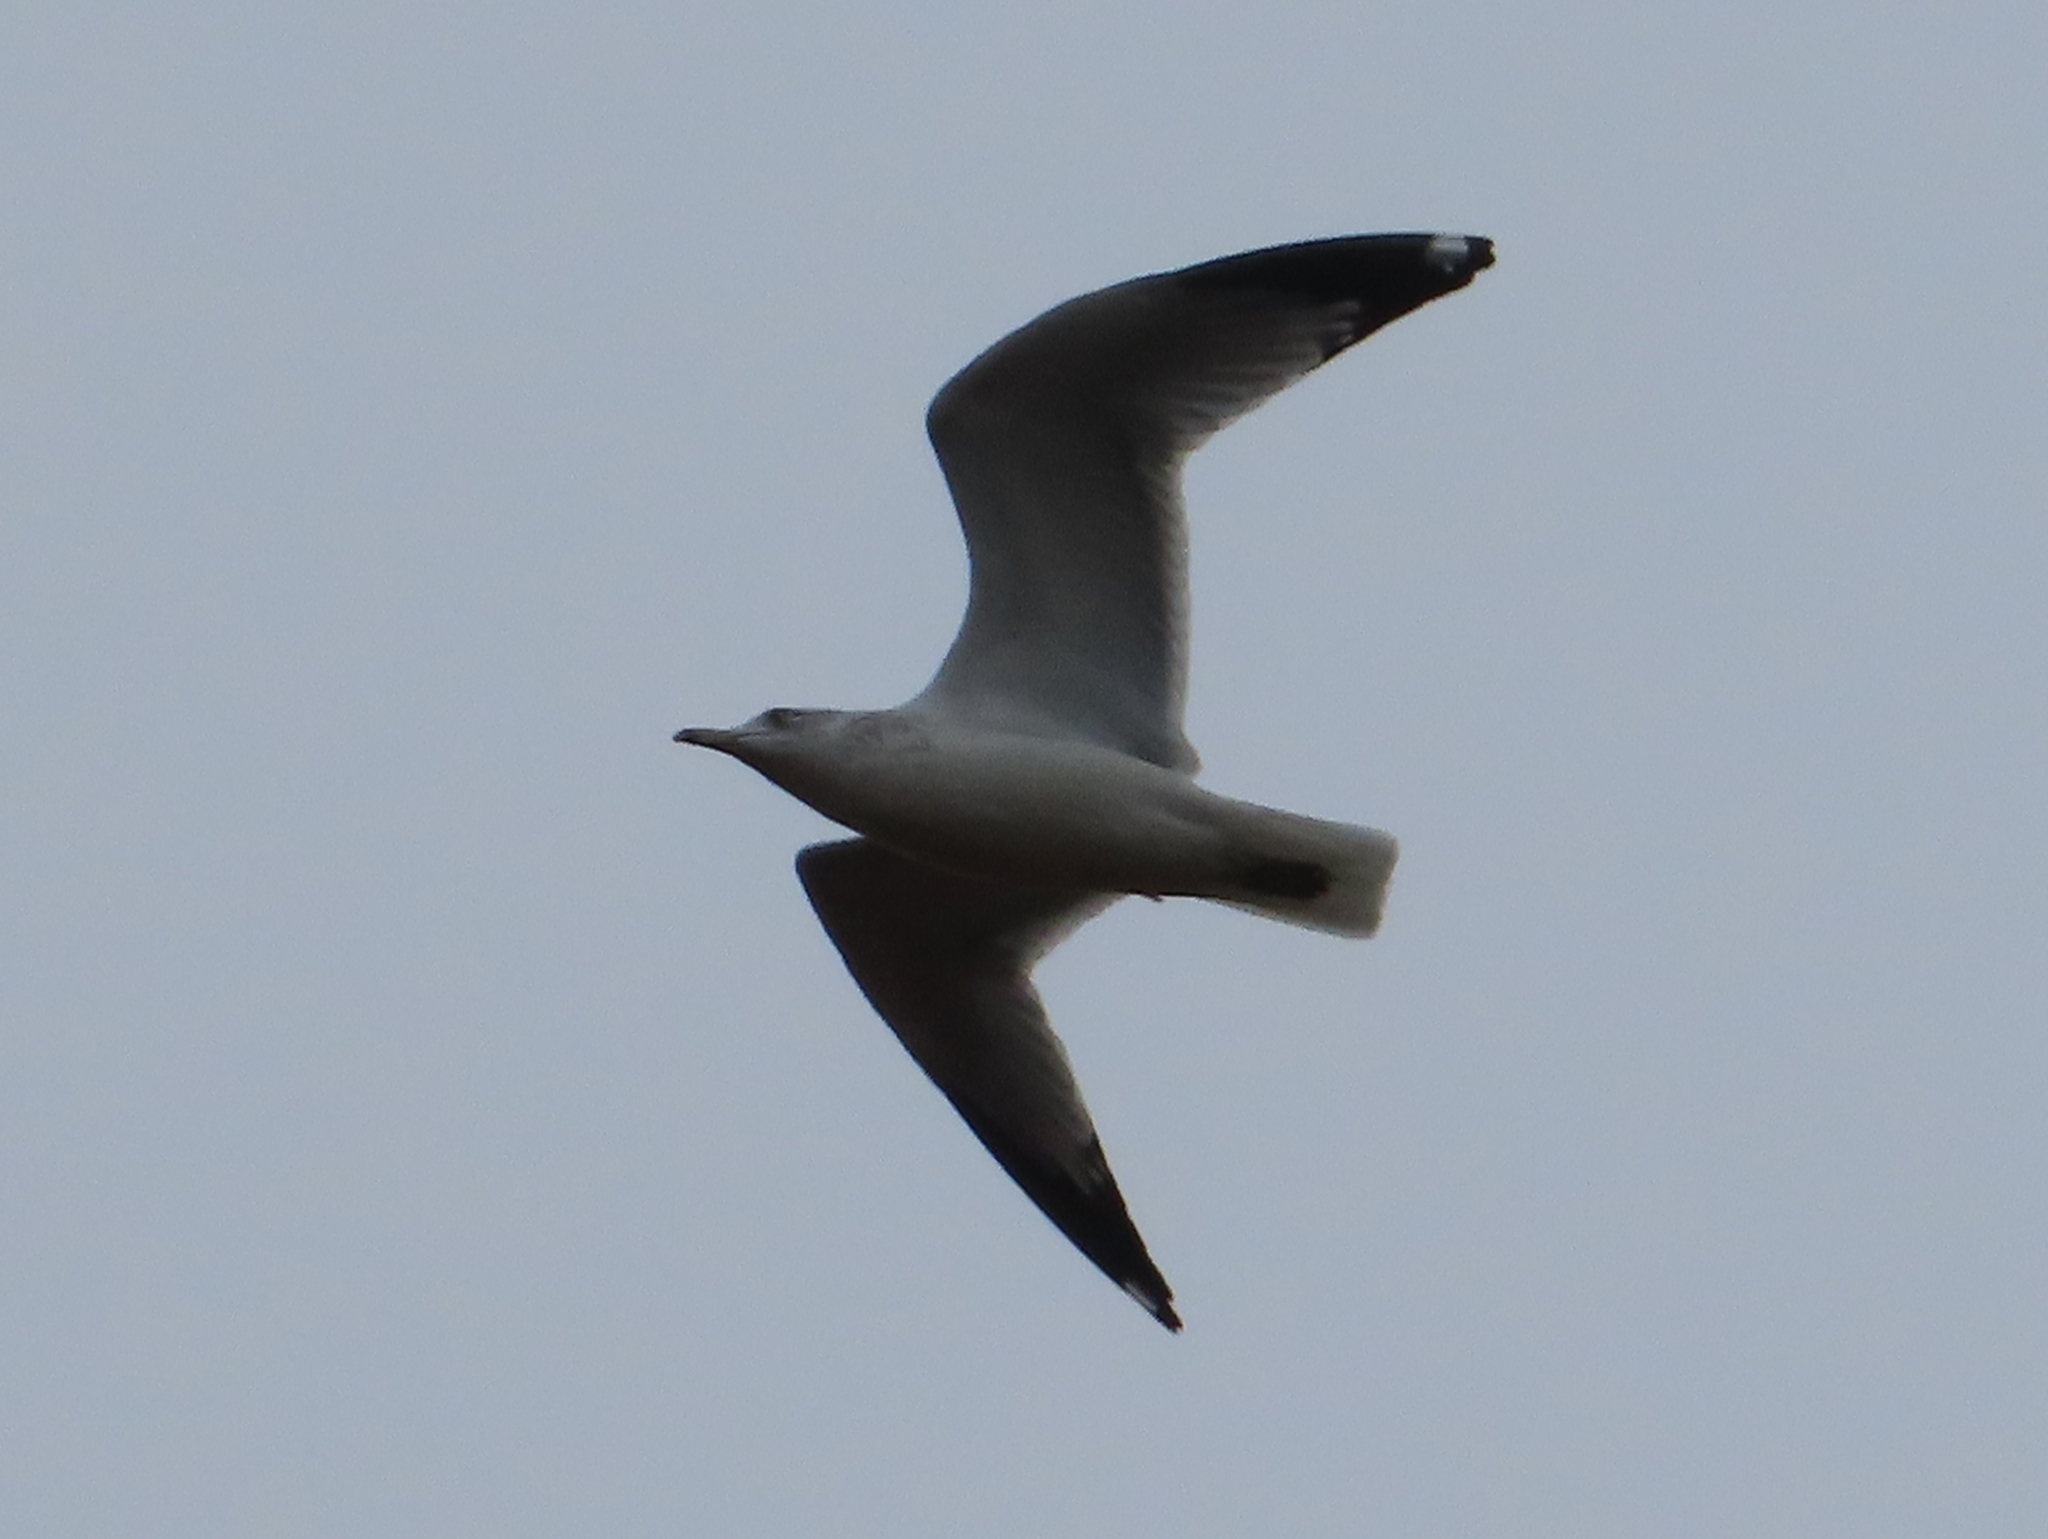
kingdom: Animalia
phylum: Chordata
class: Aves
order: Charadriiformes
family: Laridae
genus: Larus
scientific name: Larus delawarensis
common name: Ring-billed gull
